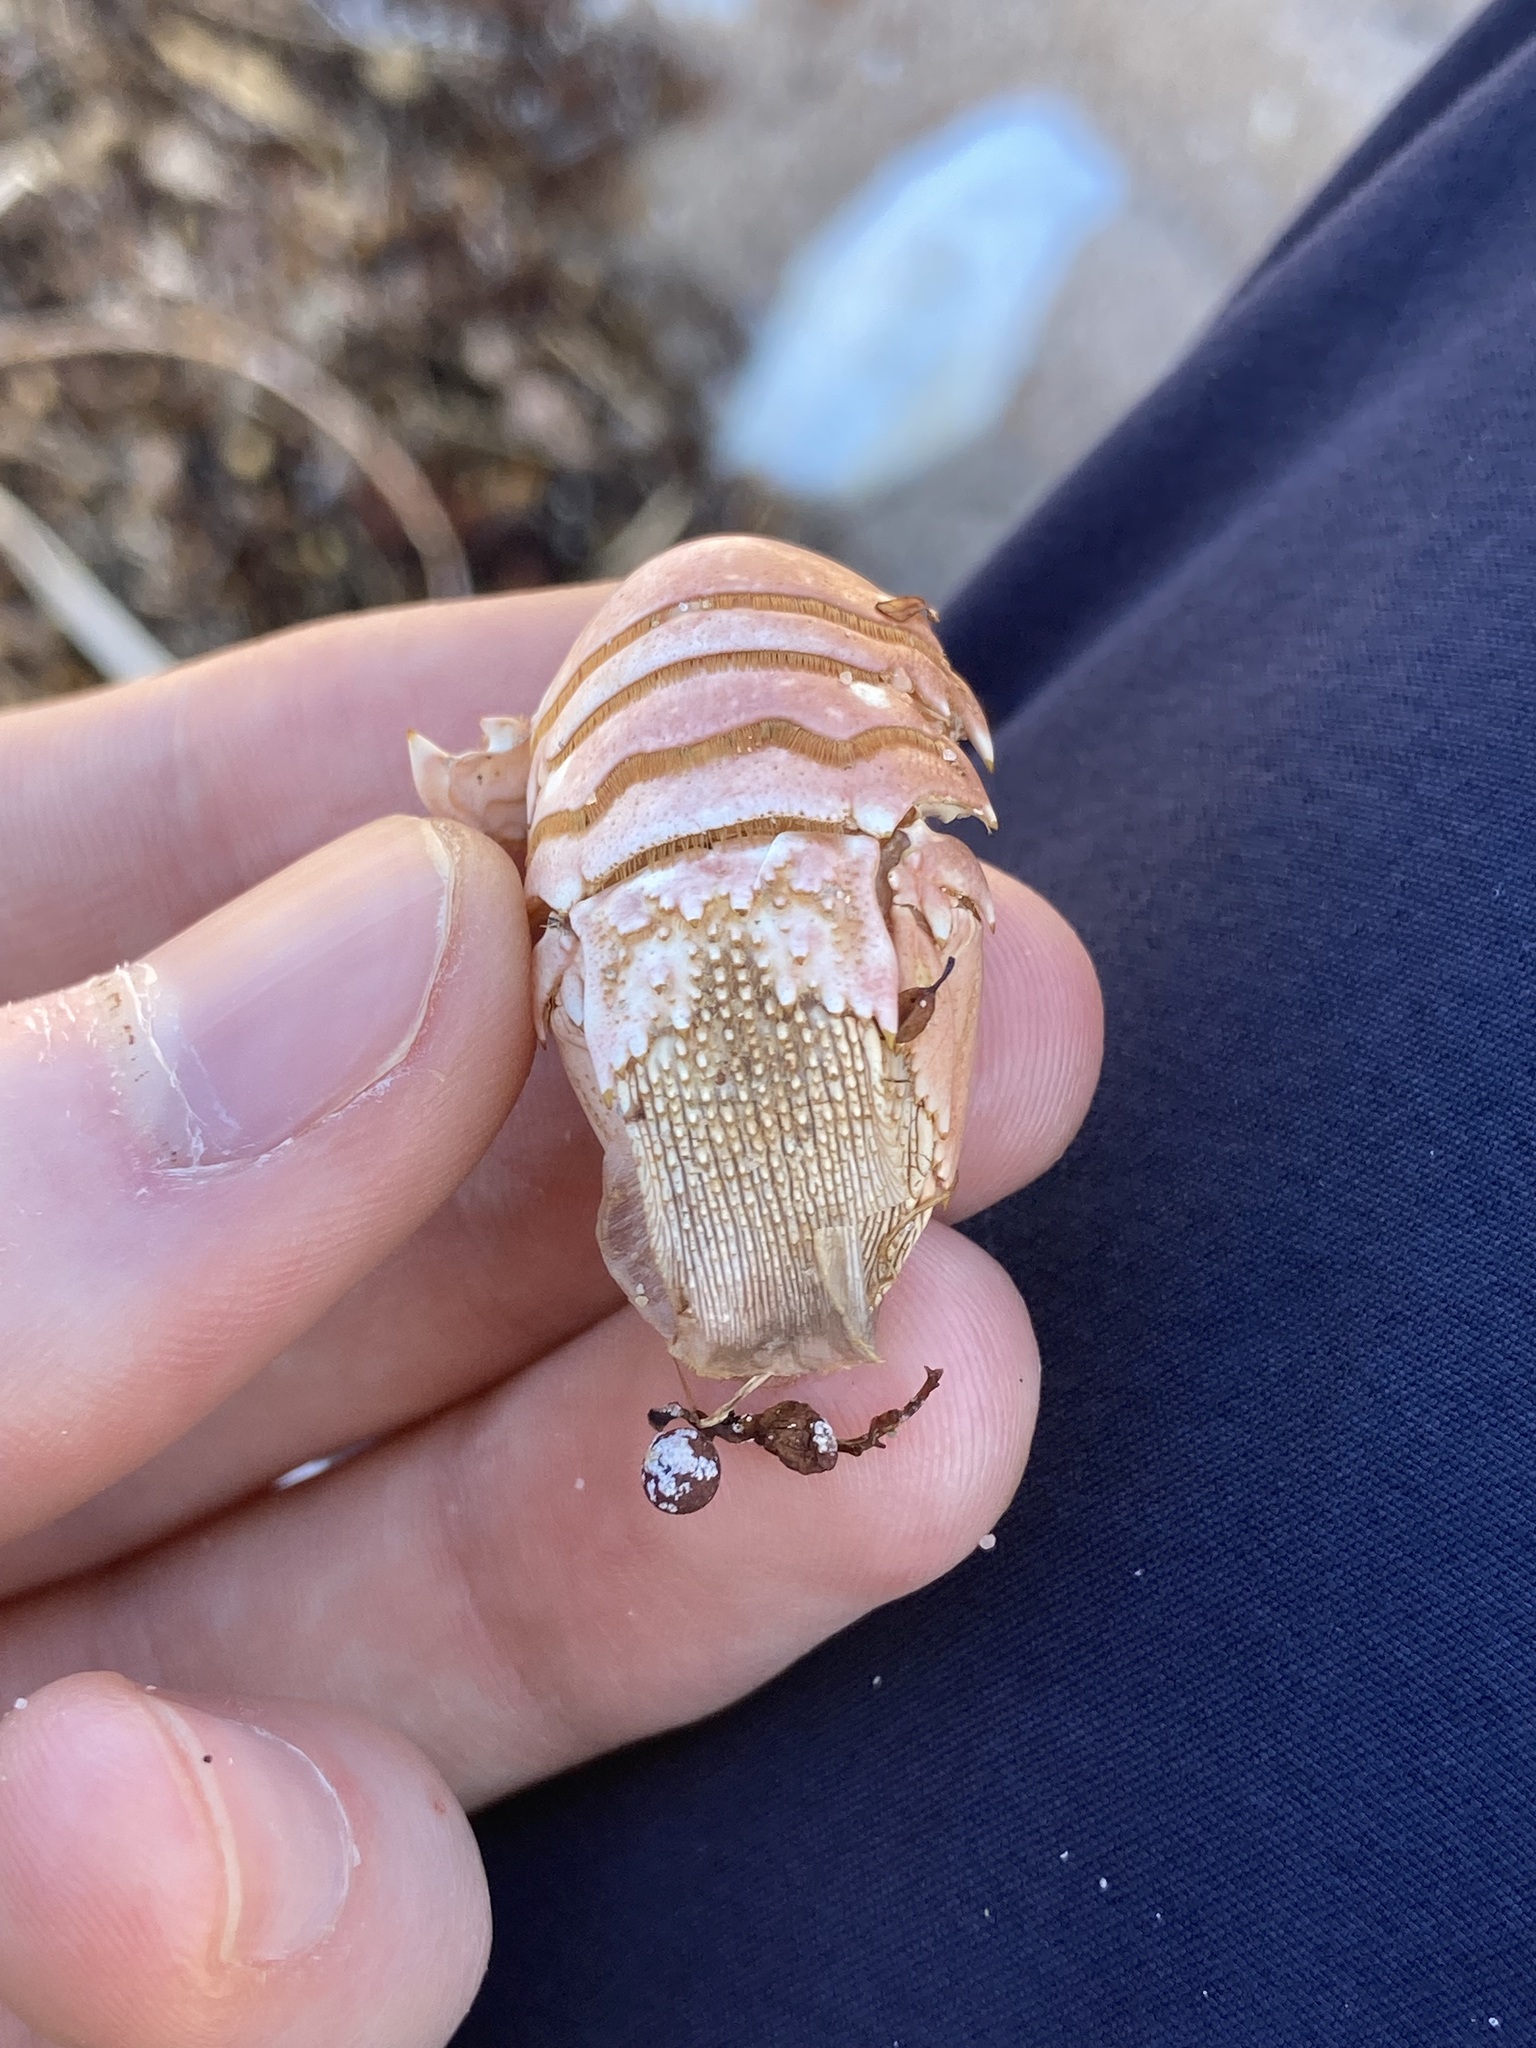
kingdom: Animalia
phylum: Arthropoda
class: Malacostraca
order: Decapoda
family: Palinuridae
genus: Panulirus
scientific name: Panulirus cygnus
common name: Australian spiny lobster
